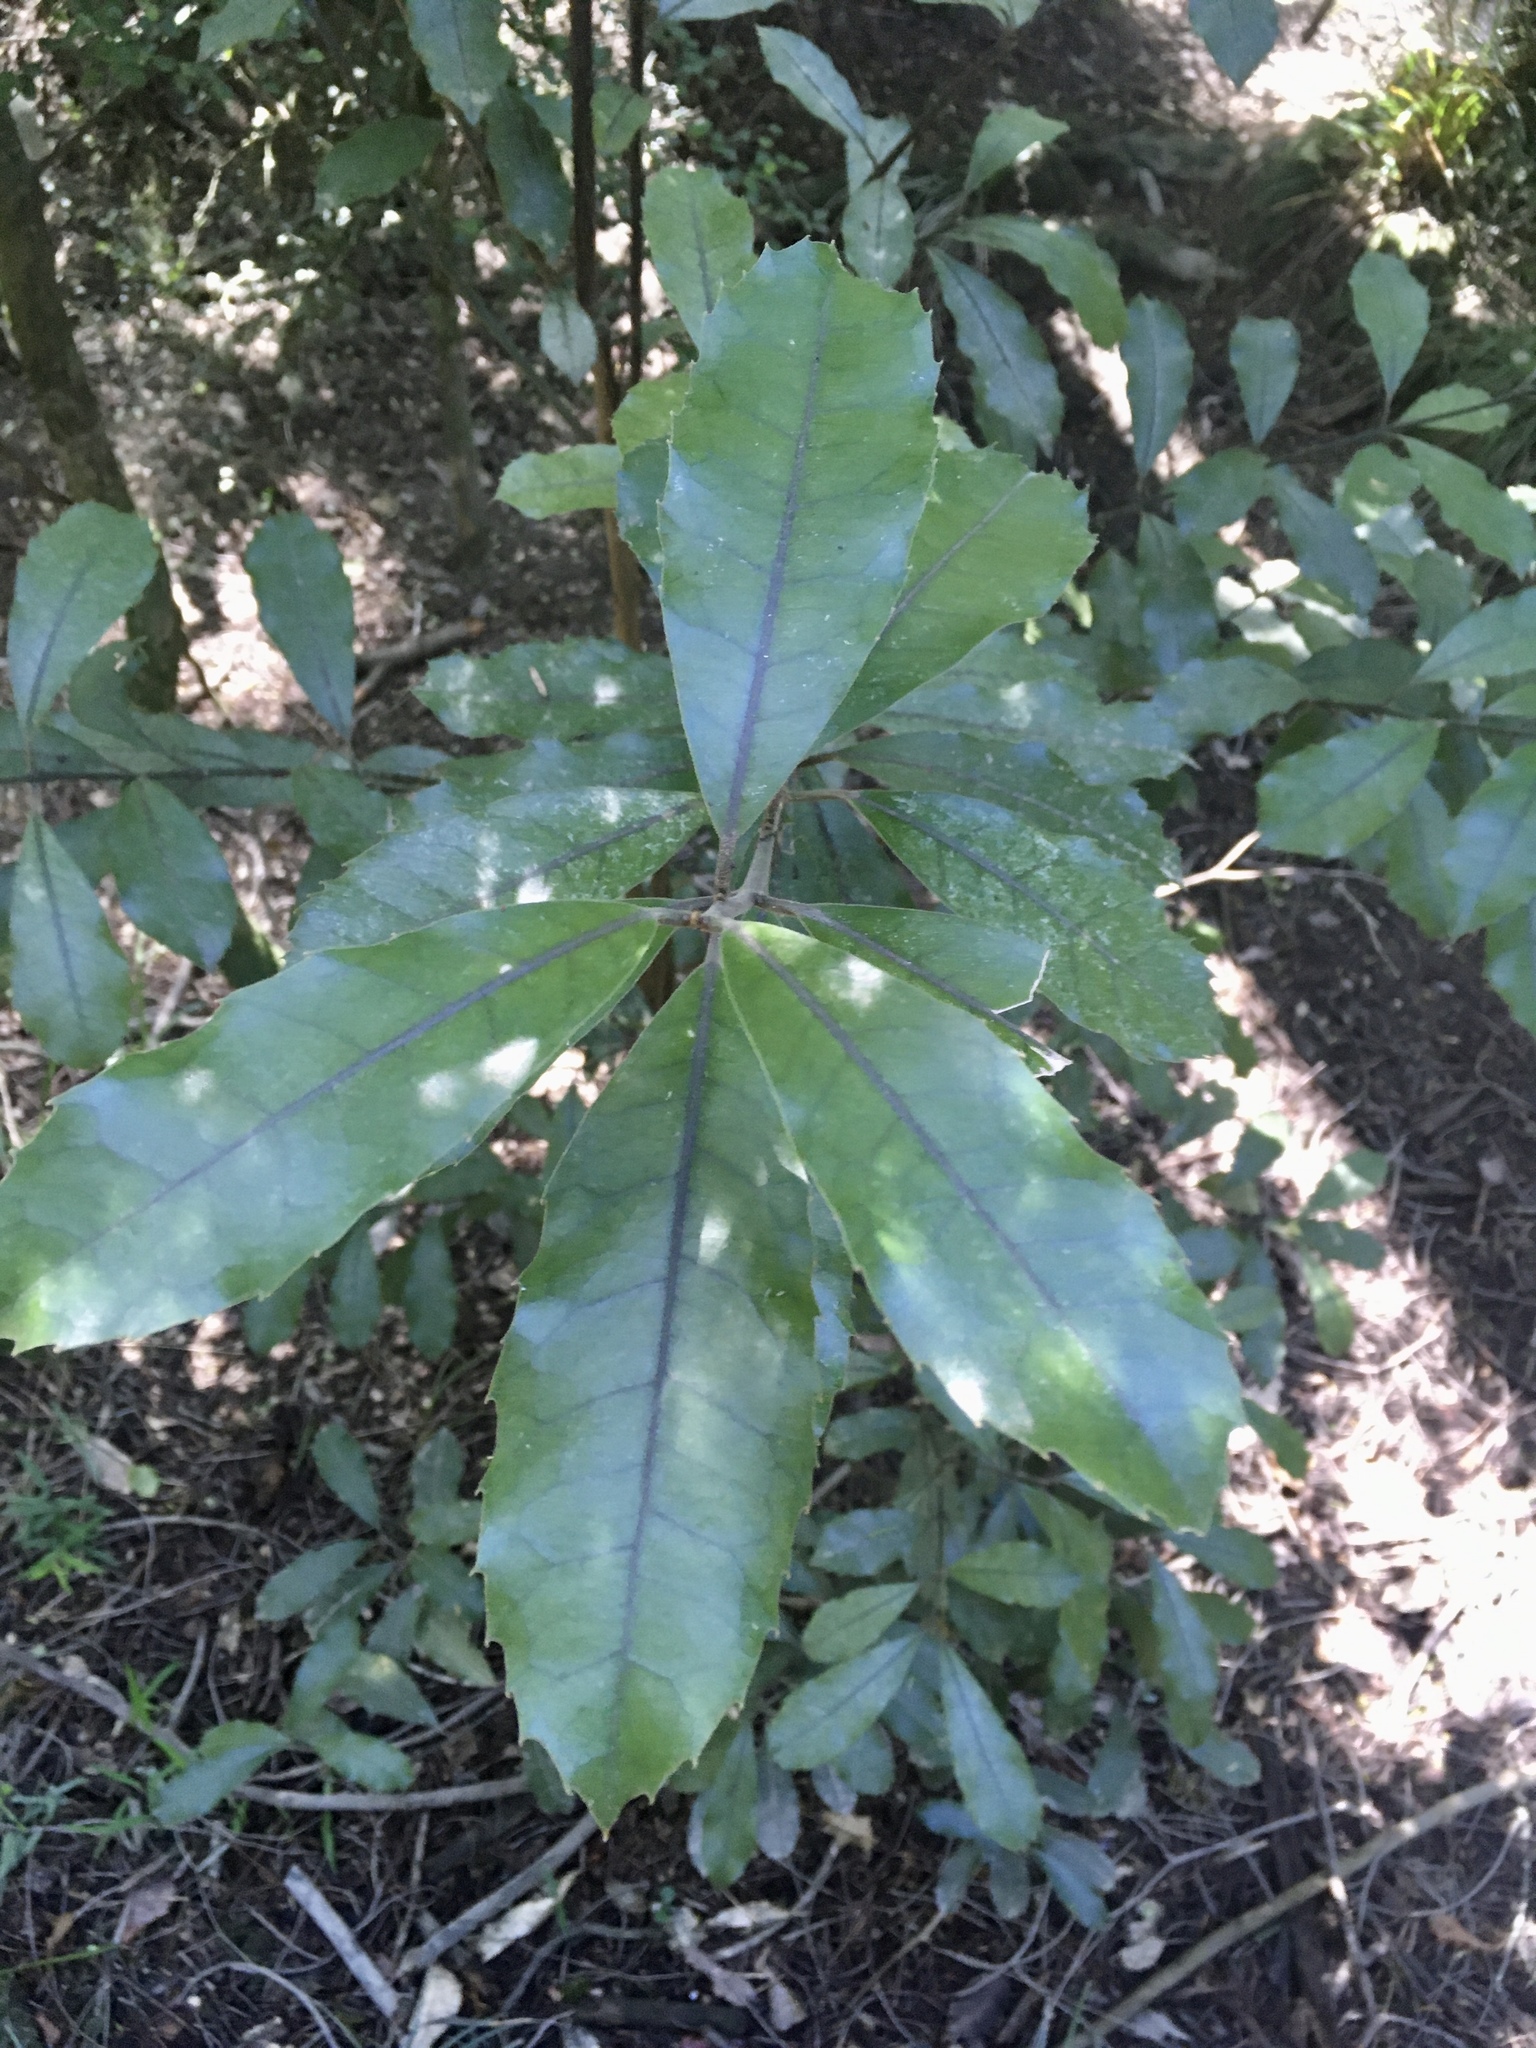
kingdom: Plantae
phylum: Tracheophyta
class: Magnoliopsida
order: Laurales
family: Monimiaceae
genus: Hedycarya
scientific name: Hedycarya arborea
